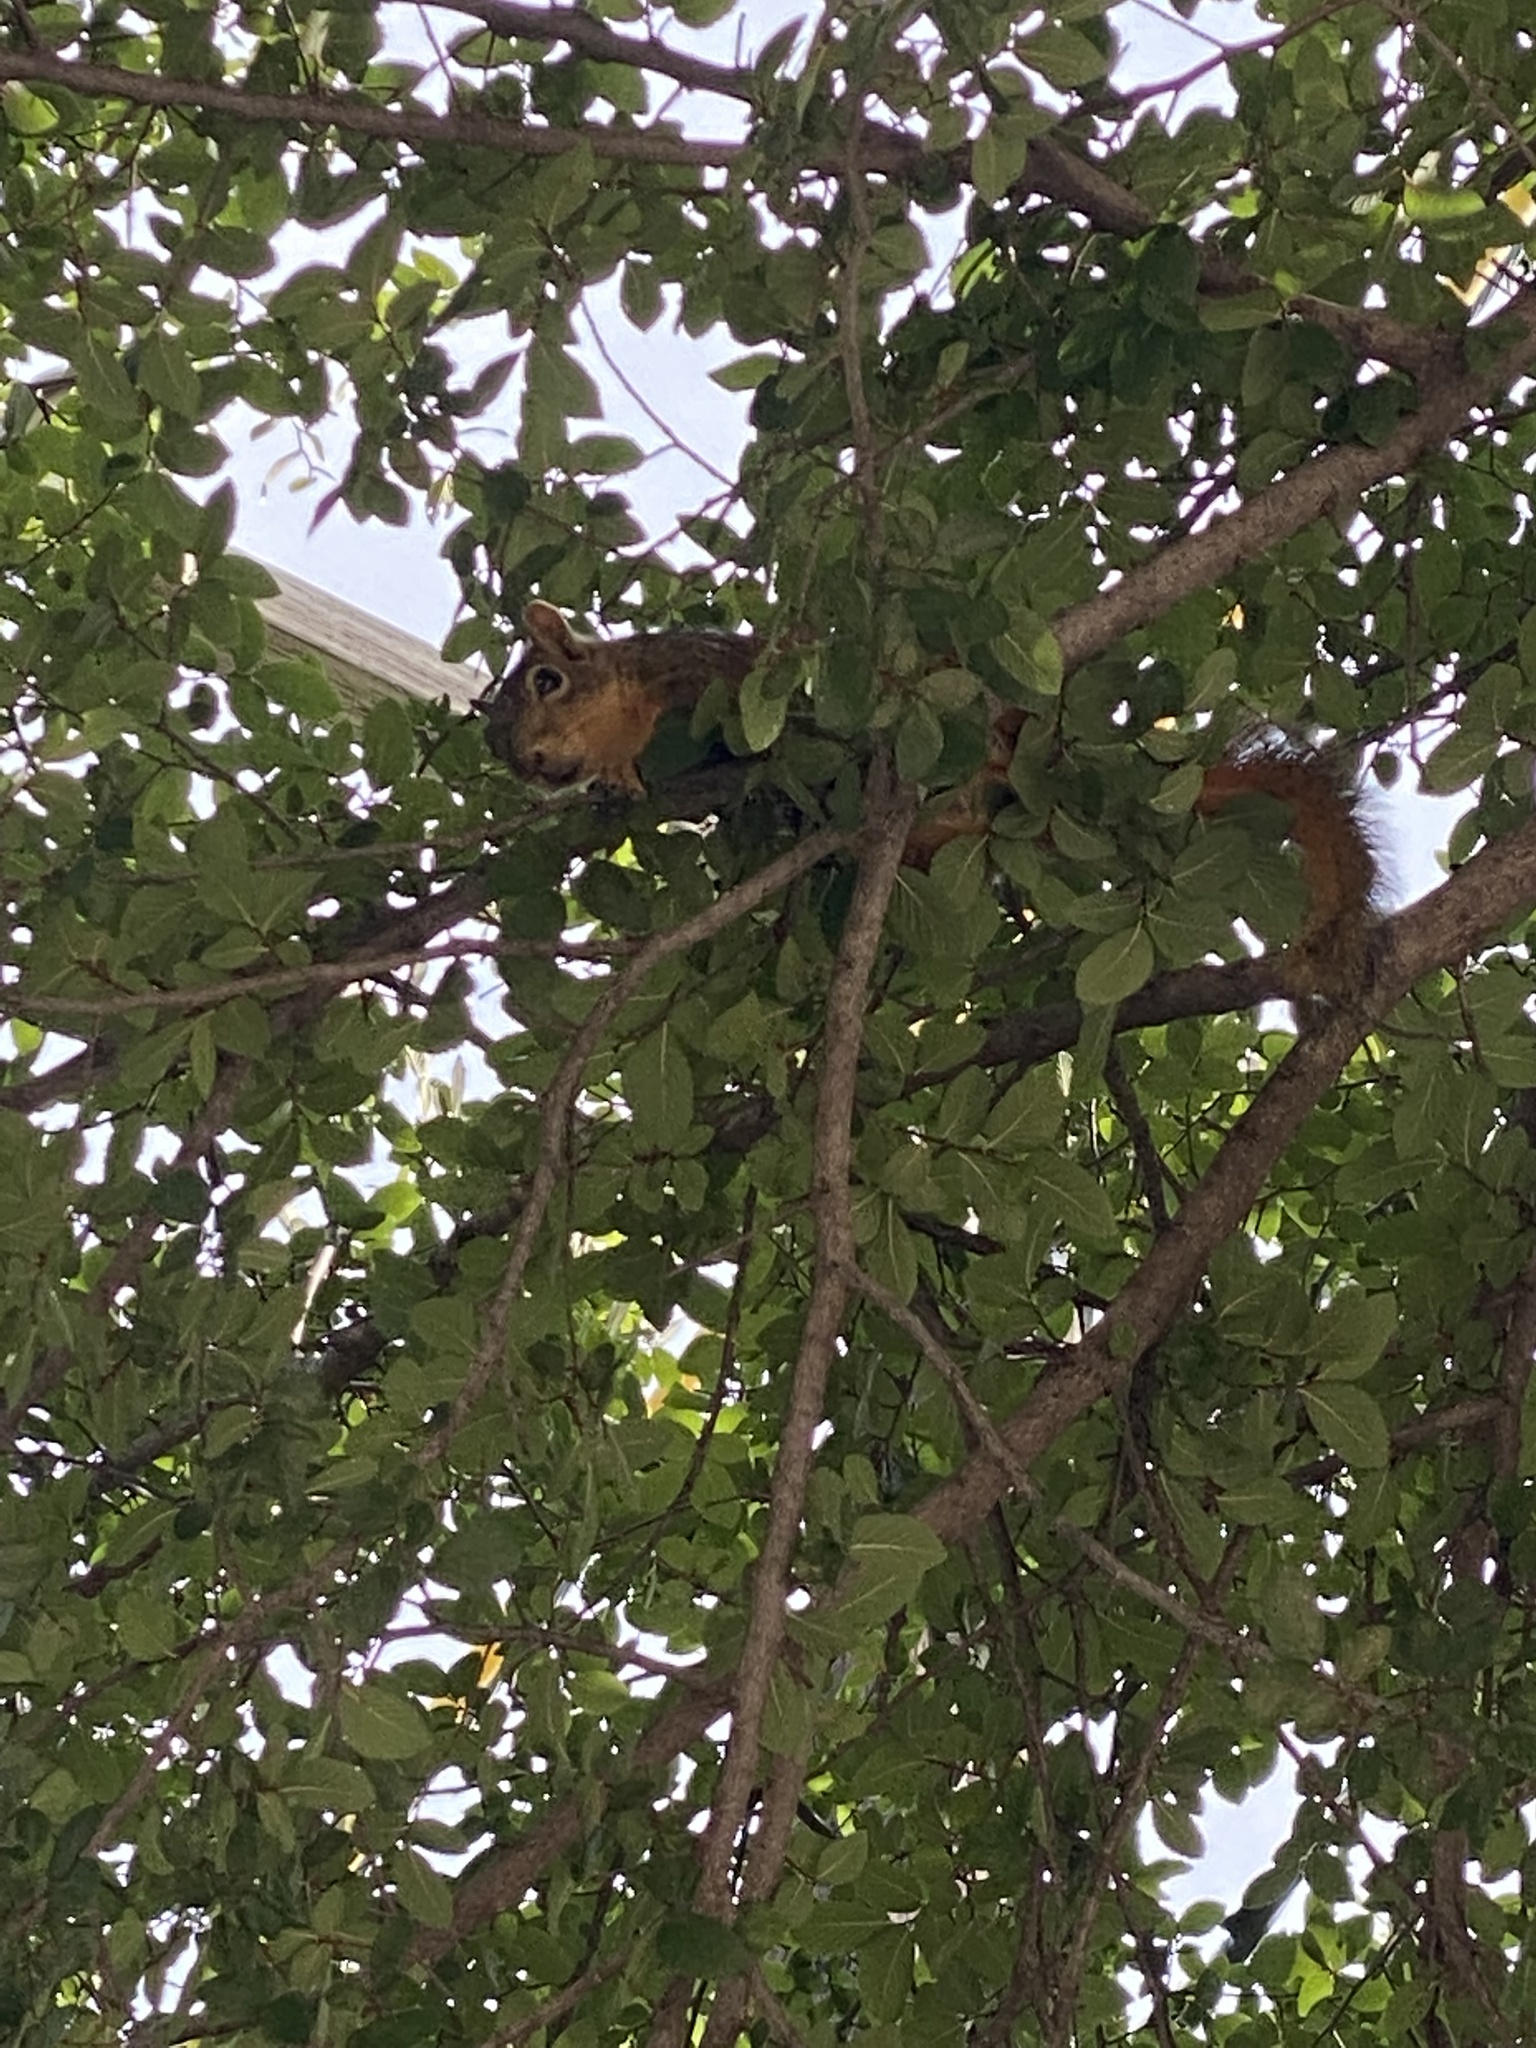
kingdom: Animalia
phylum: Chordata
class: Mammalia
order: Rodentia
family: Sciuridae
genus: Sciurus
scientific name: Sciurus niger
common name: Fox squirrel
